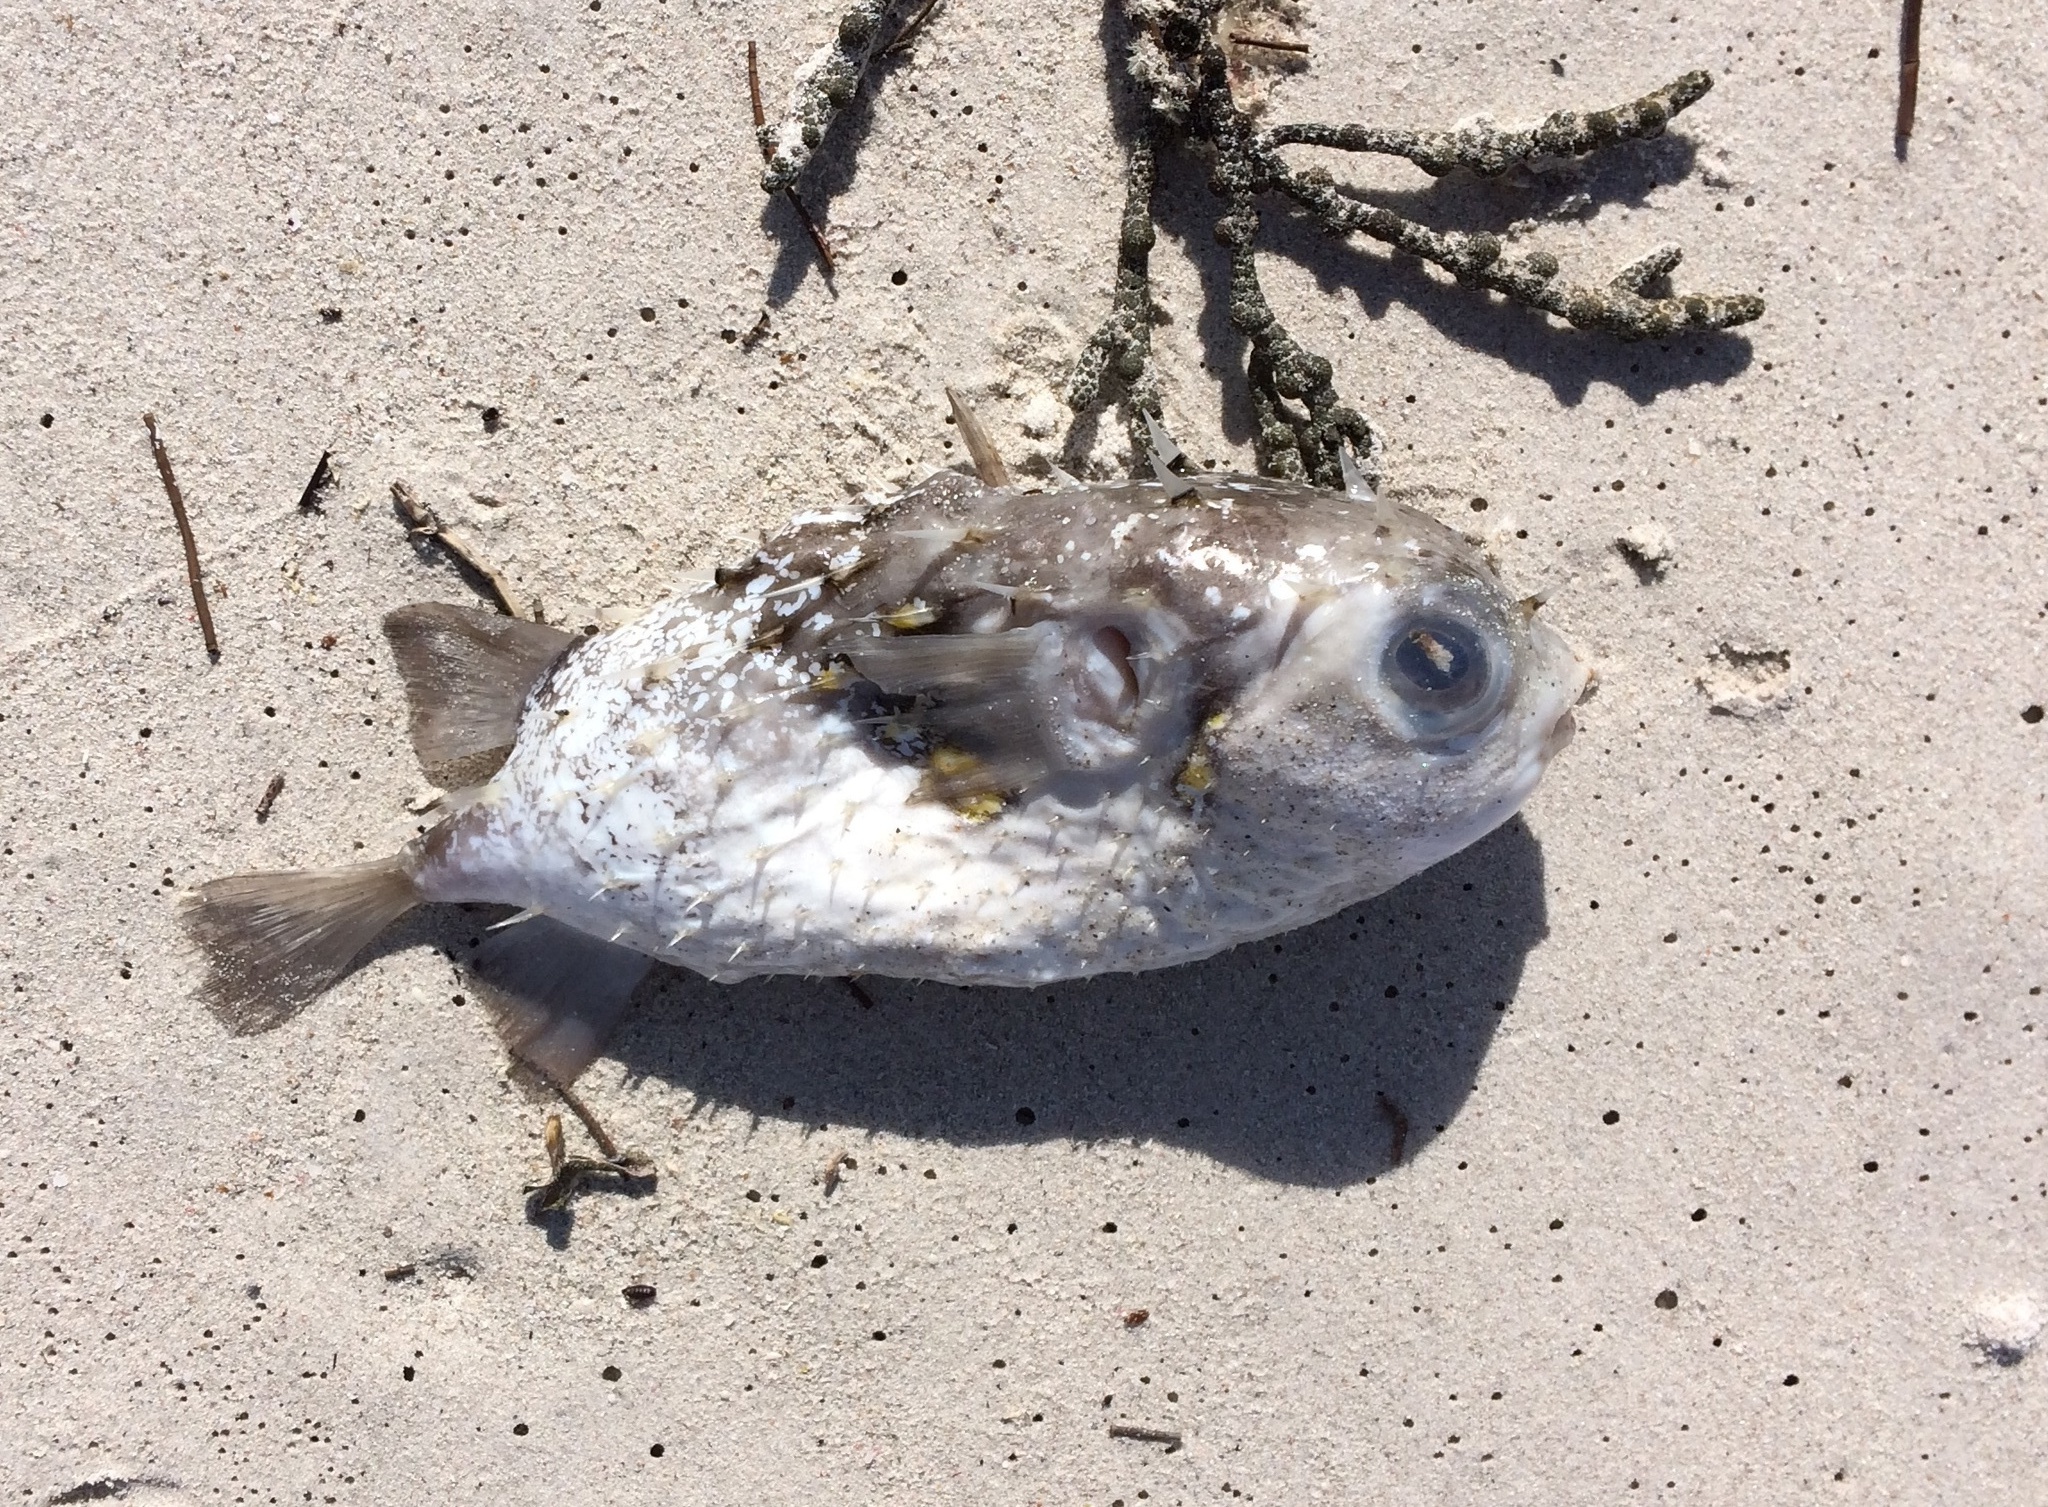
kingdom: Animalia
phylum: Chordata
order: Tetraodontiformes
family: Diodontidae
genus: Allomycterus
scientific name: Allomycterus pilatus
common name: No common name
